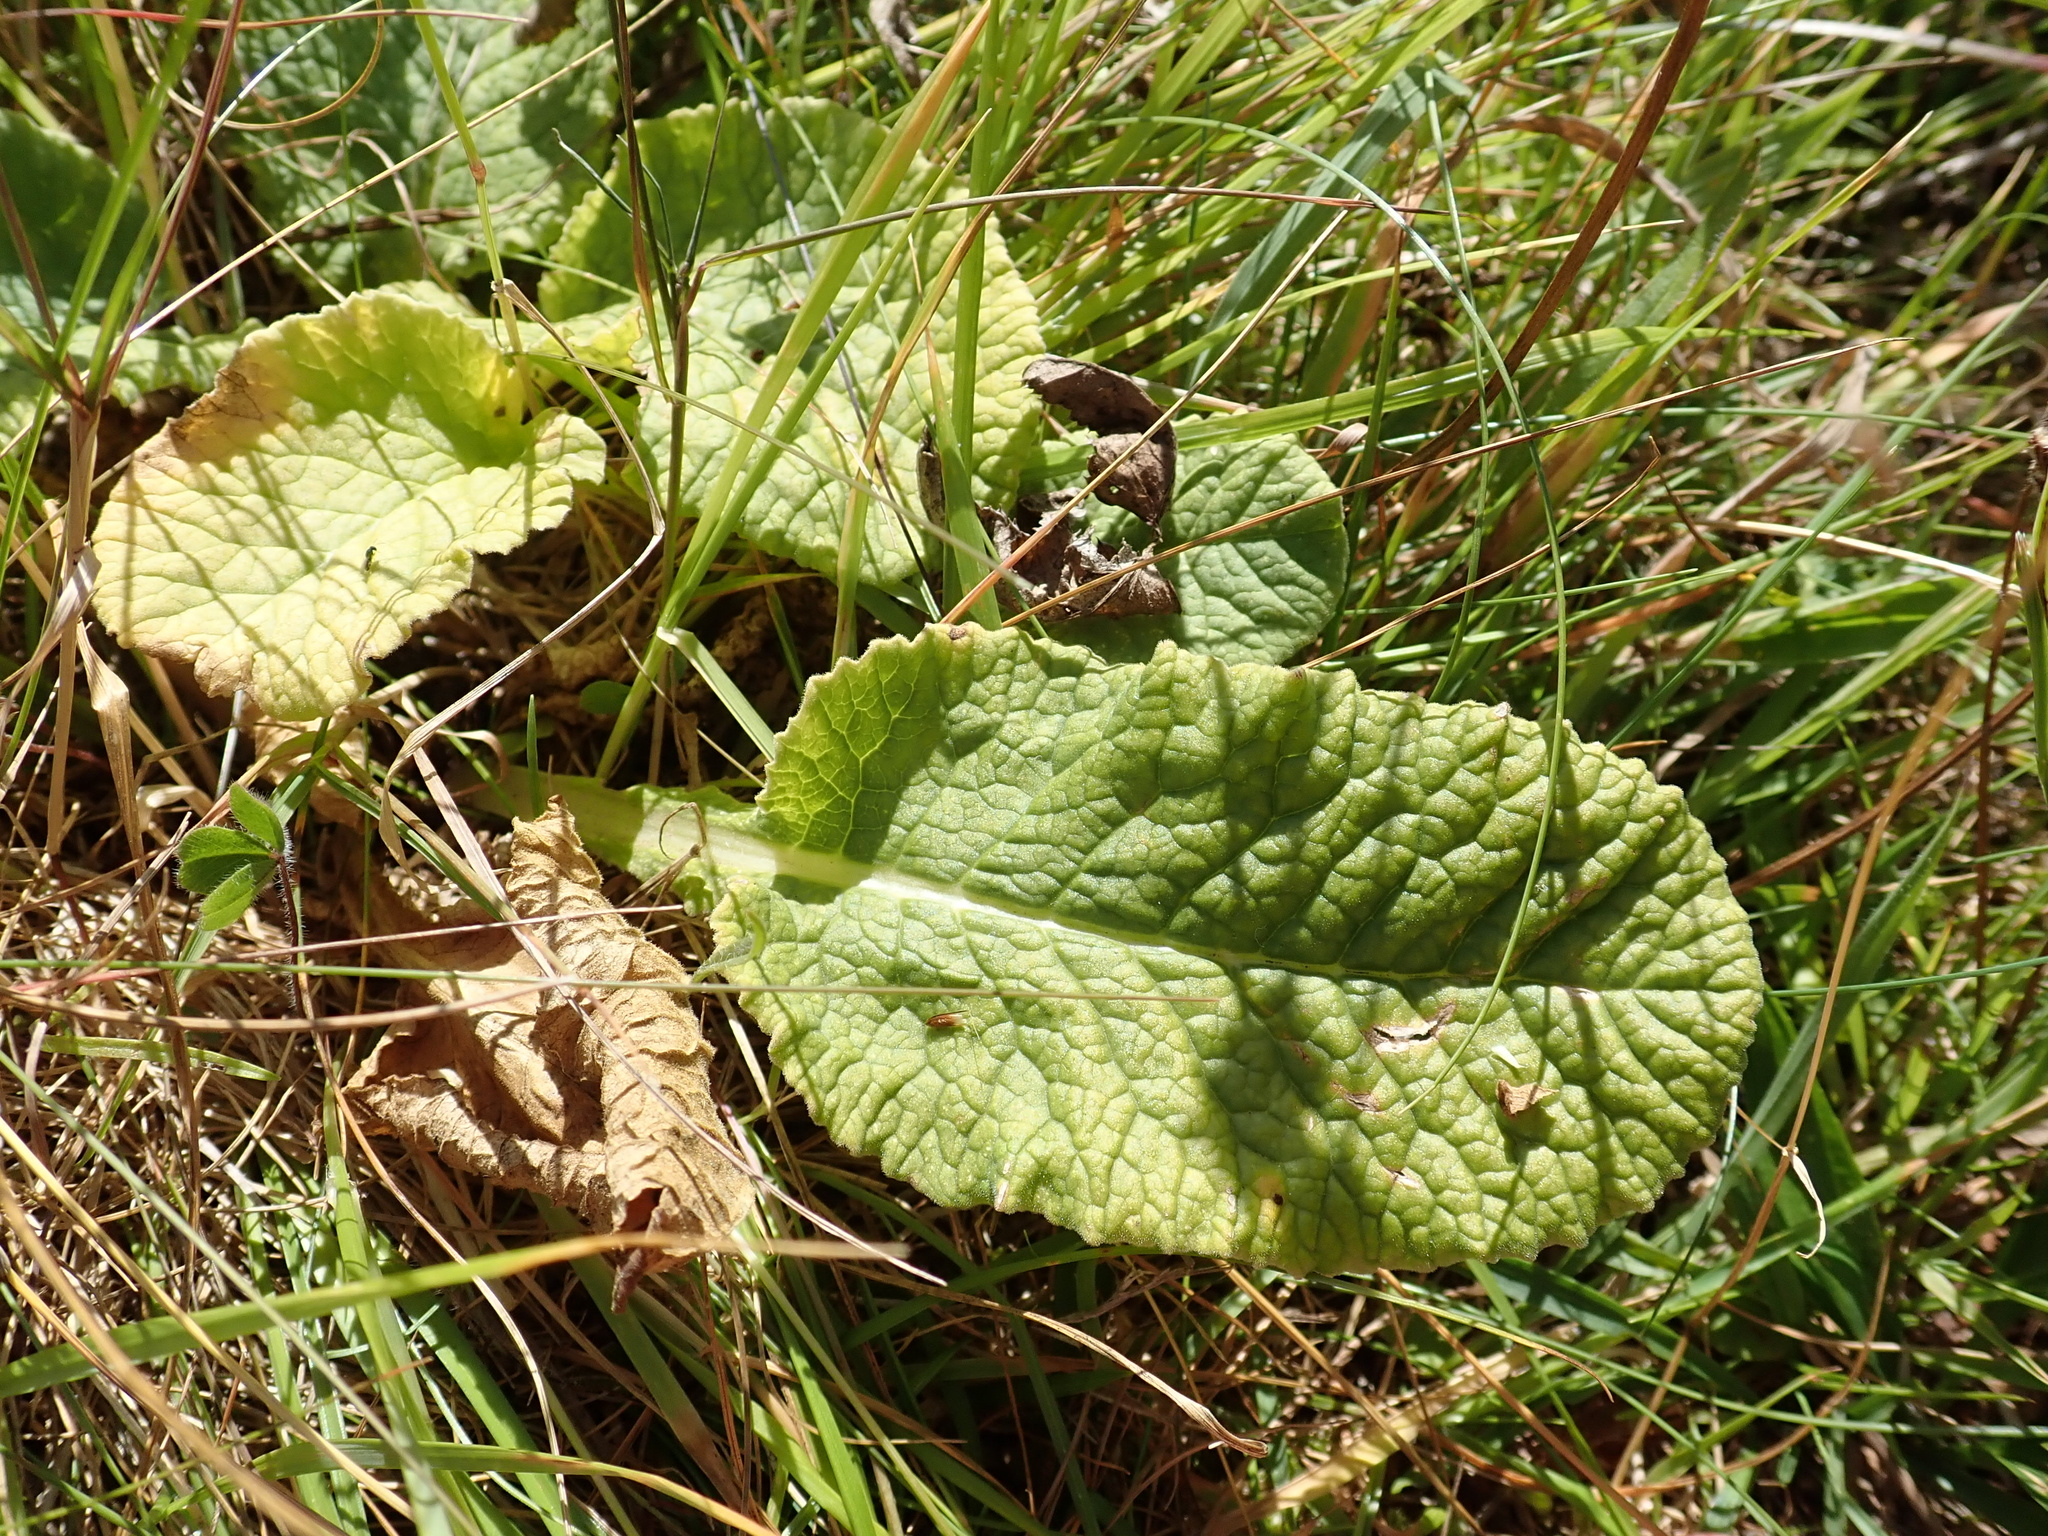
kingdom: Plantae
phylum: Tracheophyta
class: Magnoliopsida
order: Ericales
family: Primulaceae
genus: Primula
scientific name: Primula veris
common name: Cowslip
